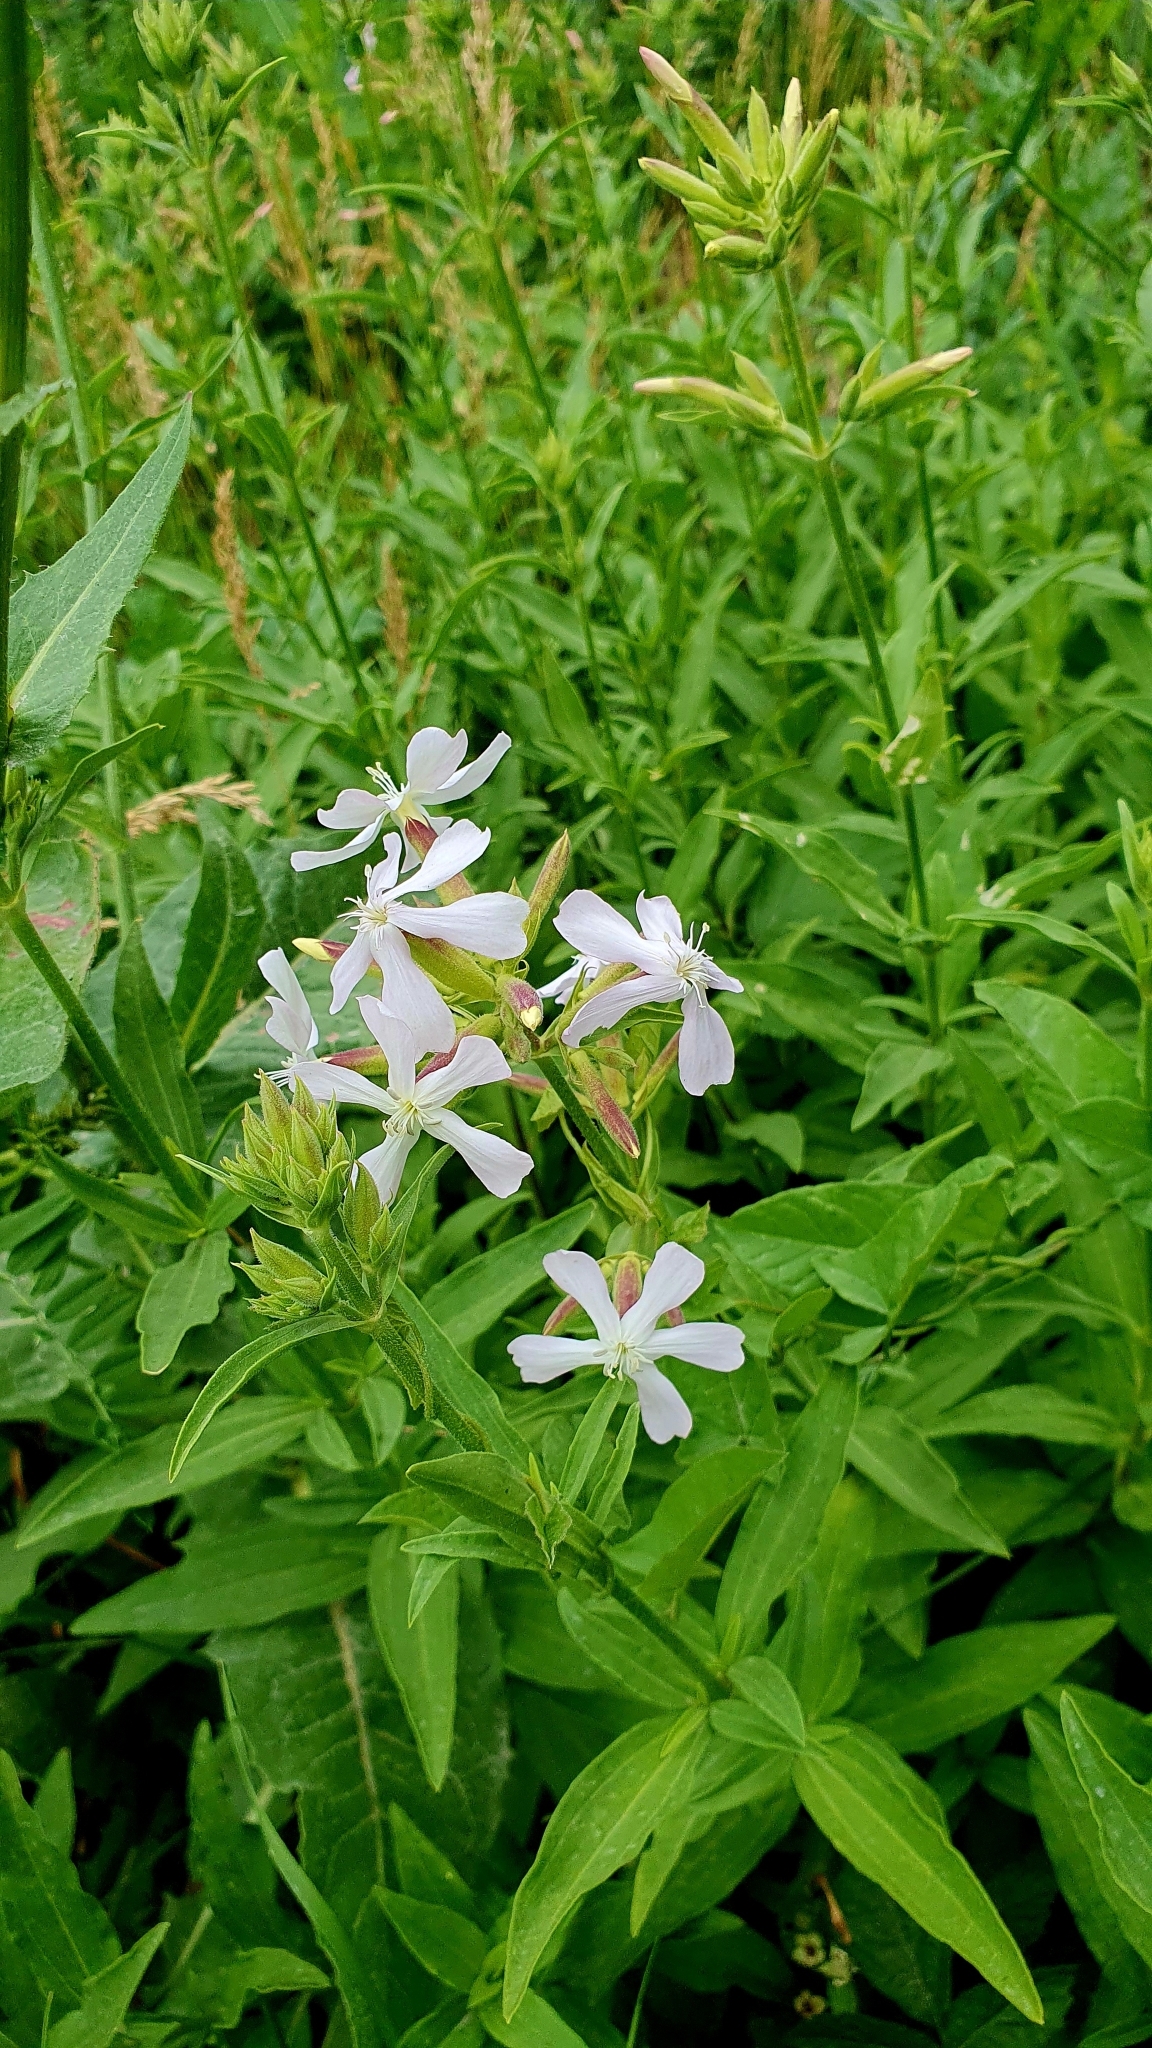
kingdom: Plantae
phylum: Tracheophyta
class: Magnoliopsida
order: Caryophyllales
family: Caryophyllaceae
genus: Saponaria
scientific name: Saponaria officinalis
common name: Soapwort
